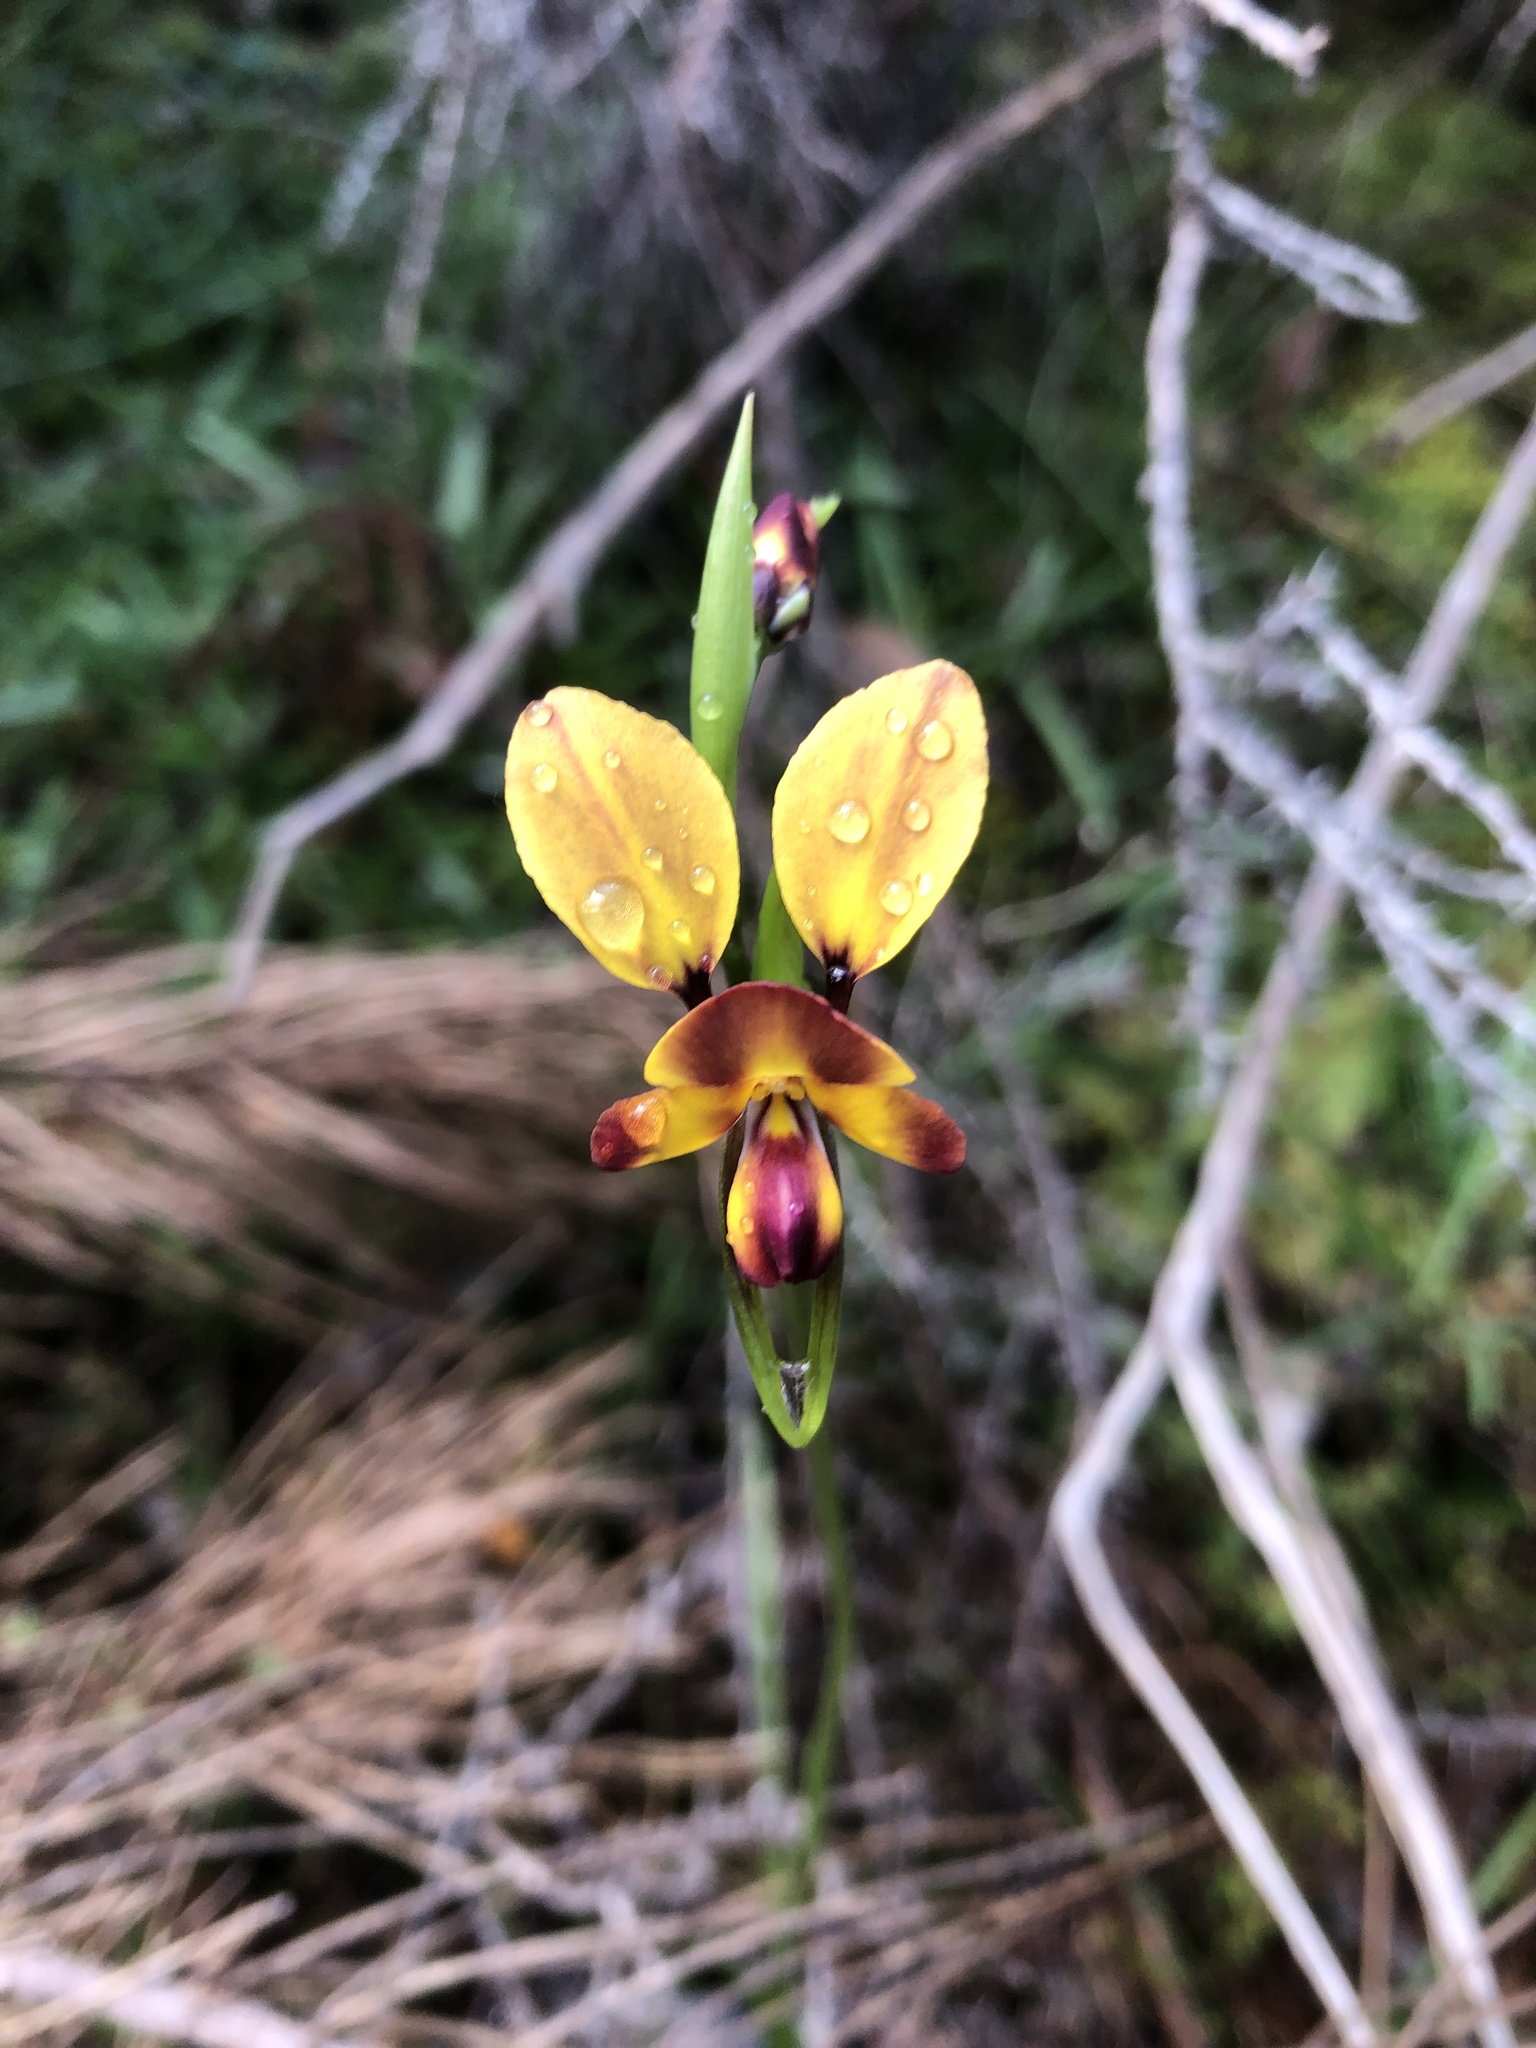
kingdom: Plantae
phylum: Tracheophyta
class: Liliopsida
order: Asparagales
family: Orchidaceae
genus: Diuris
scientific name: Diuris orientis
